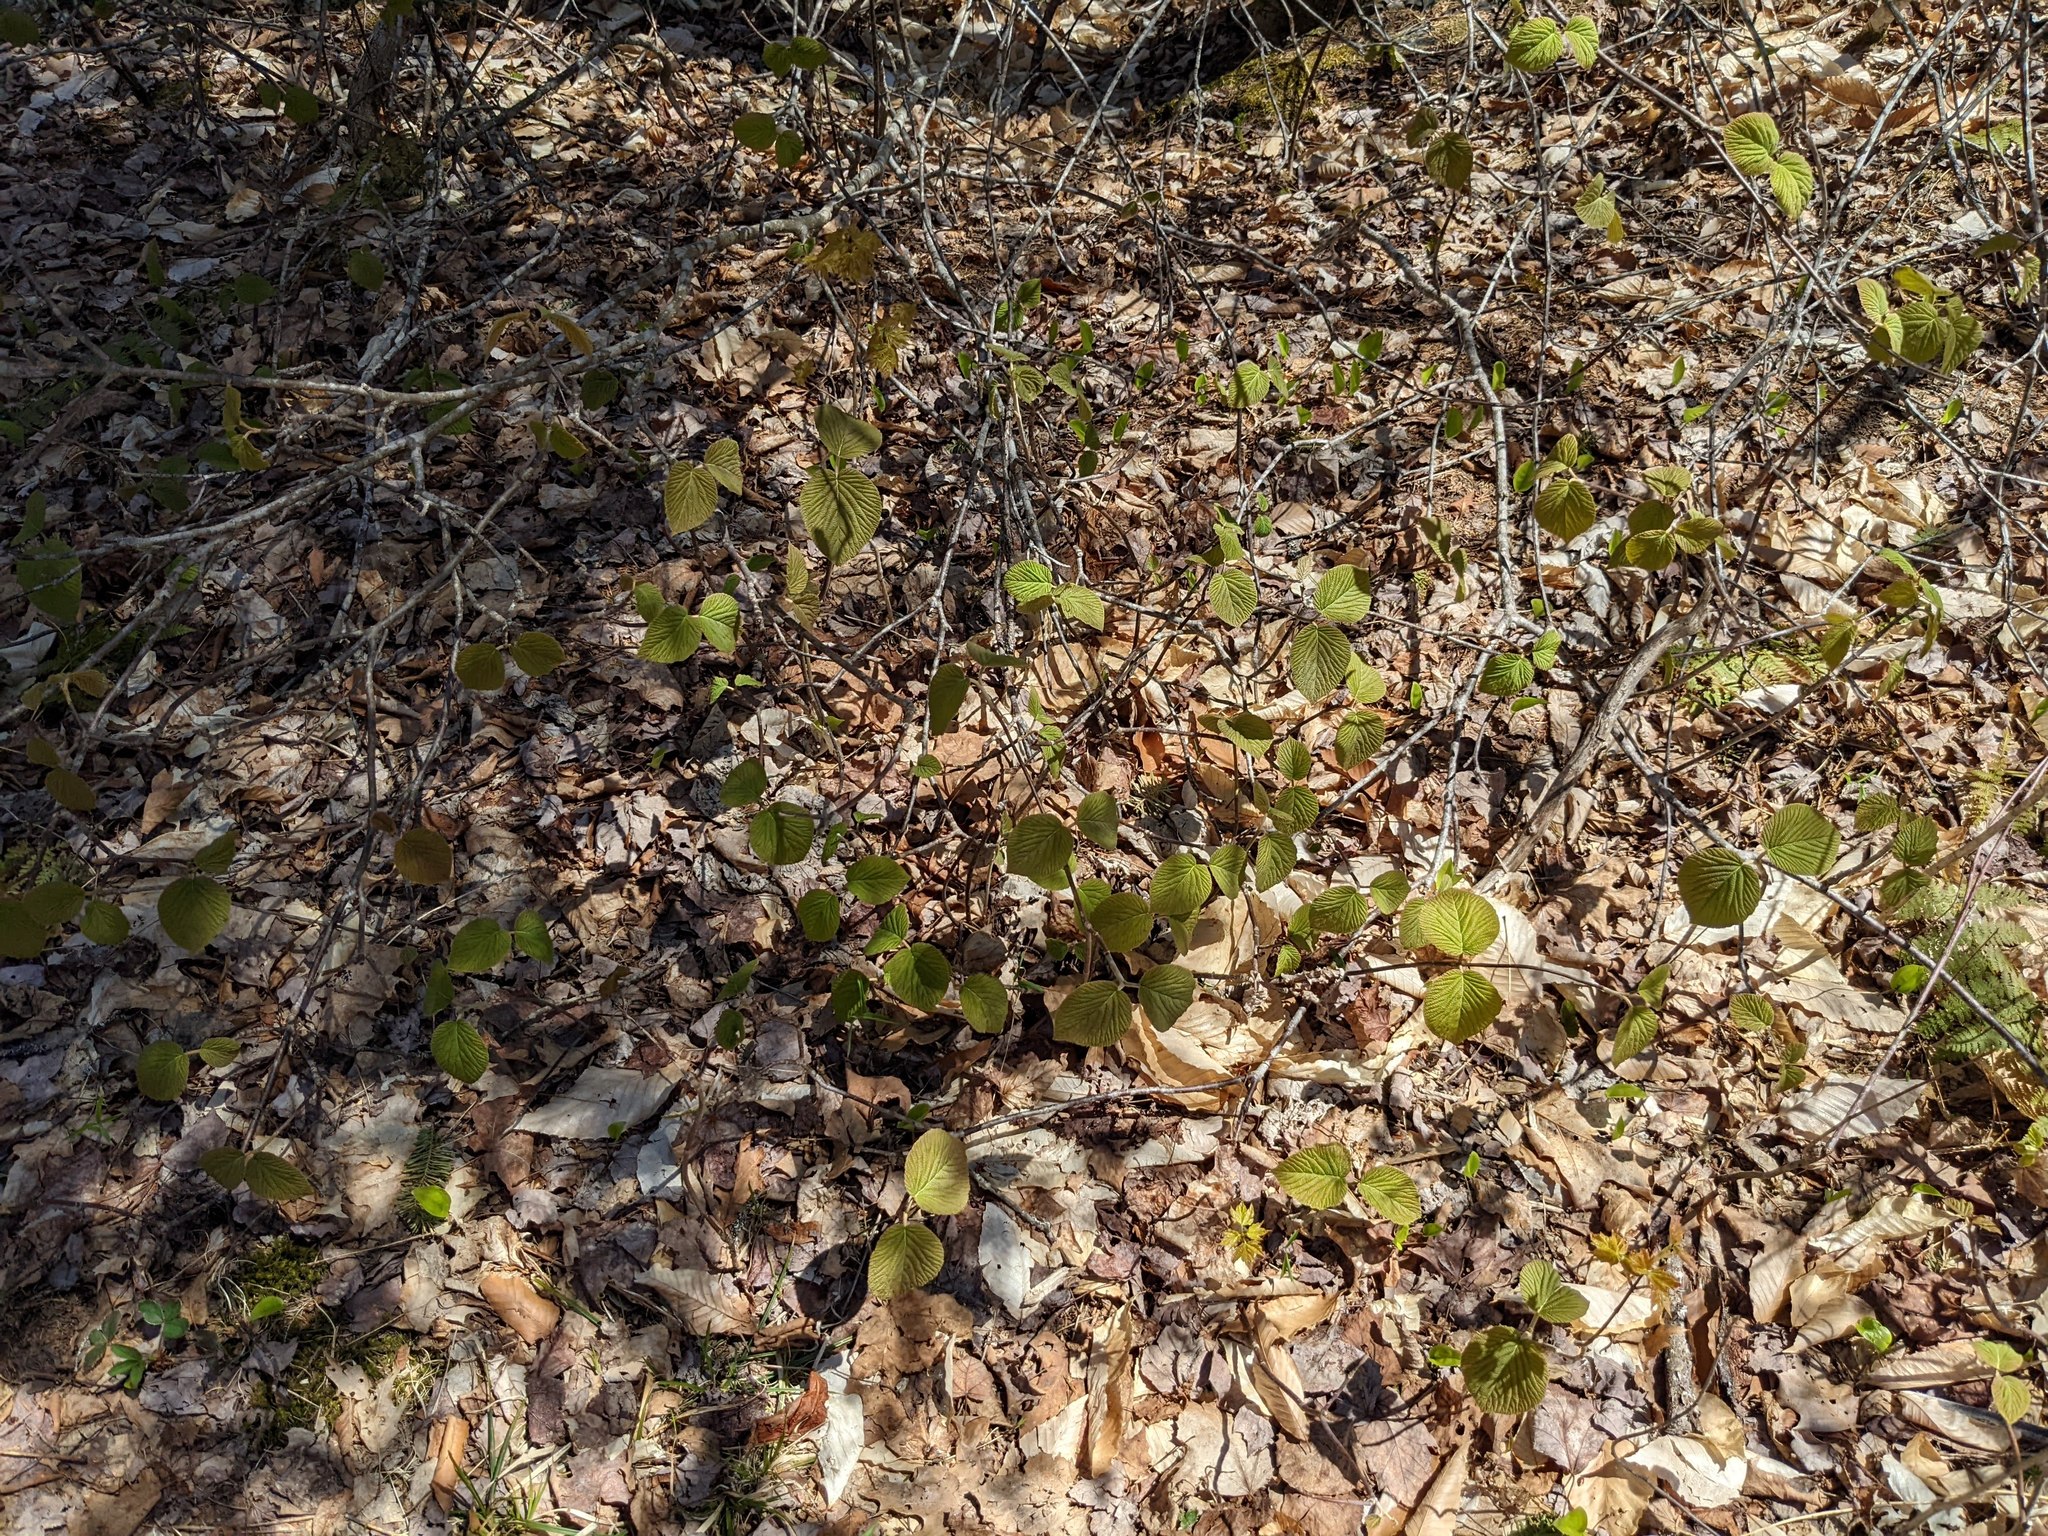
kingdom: Plantae
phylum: Tracheophyta
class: Magnoliopsida
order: Dipsacales
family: Viburnaceae
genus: Viburnum
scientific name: Viburnum lantanoides
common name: Hobblebush
